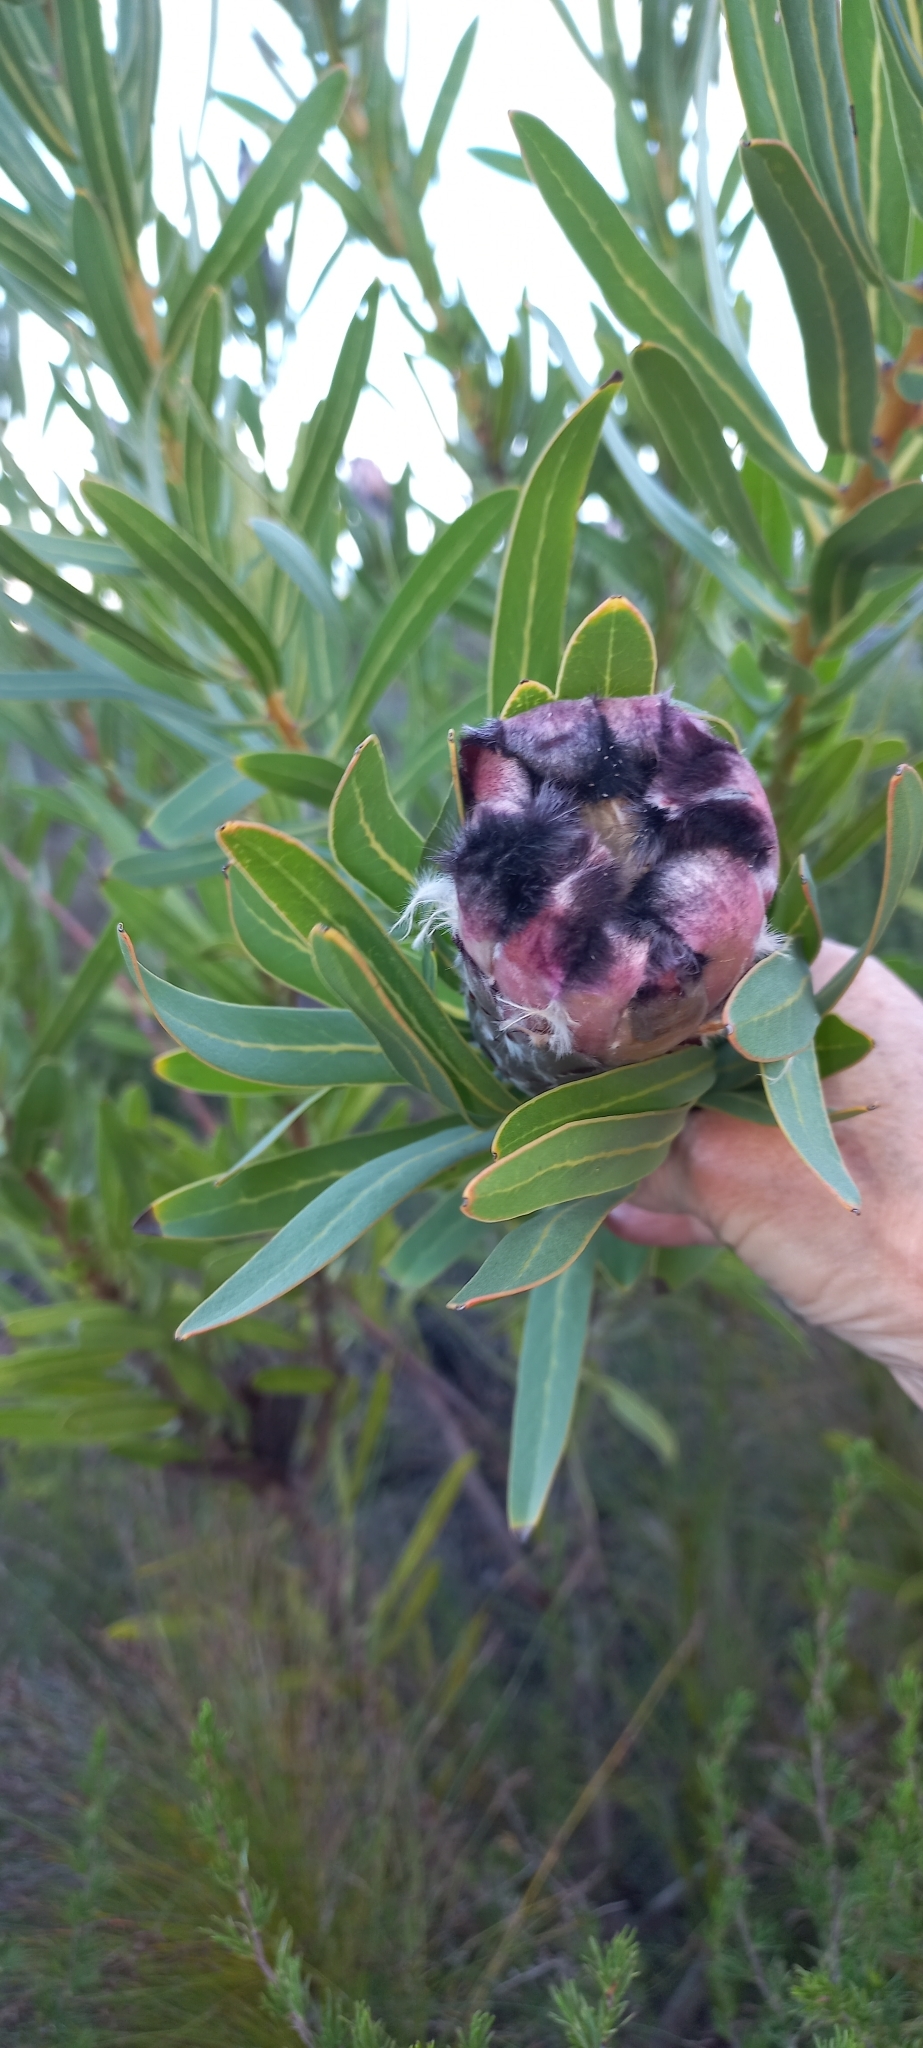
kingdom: Plantae
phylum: Tracheophyta
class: Magnoliopsida
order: Proteales
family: Proteaceae
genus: Protea
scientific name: Protea lepidocarpodendron
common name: Black-bearded protea
